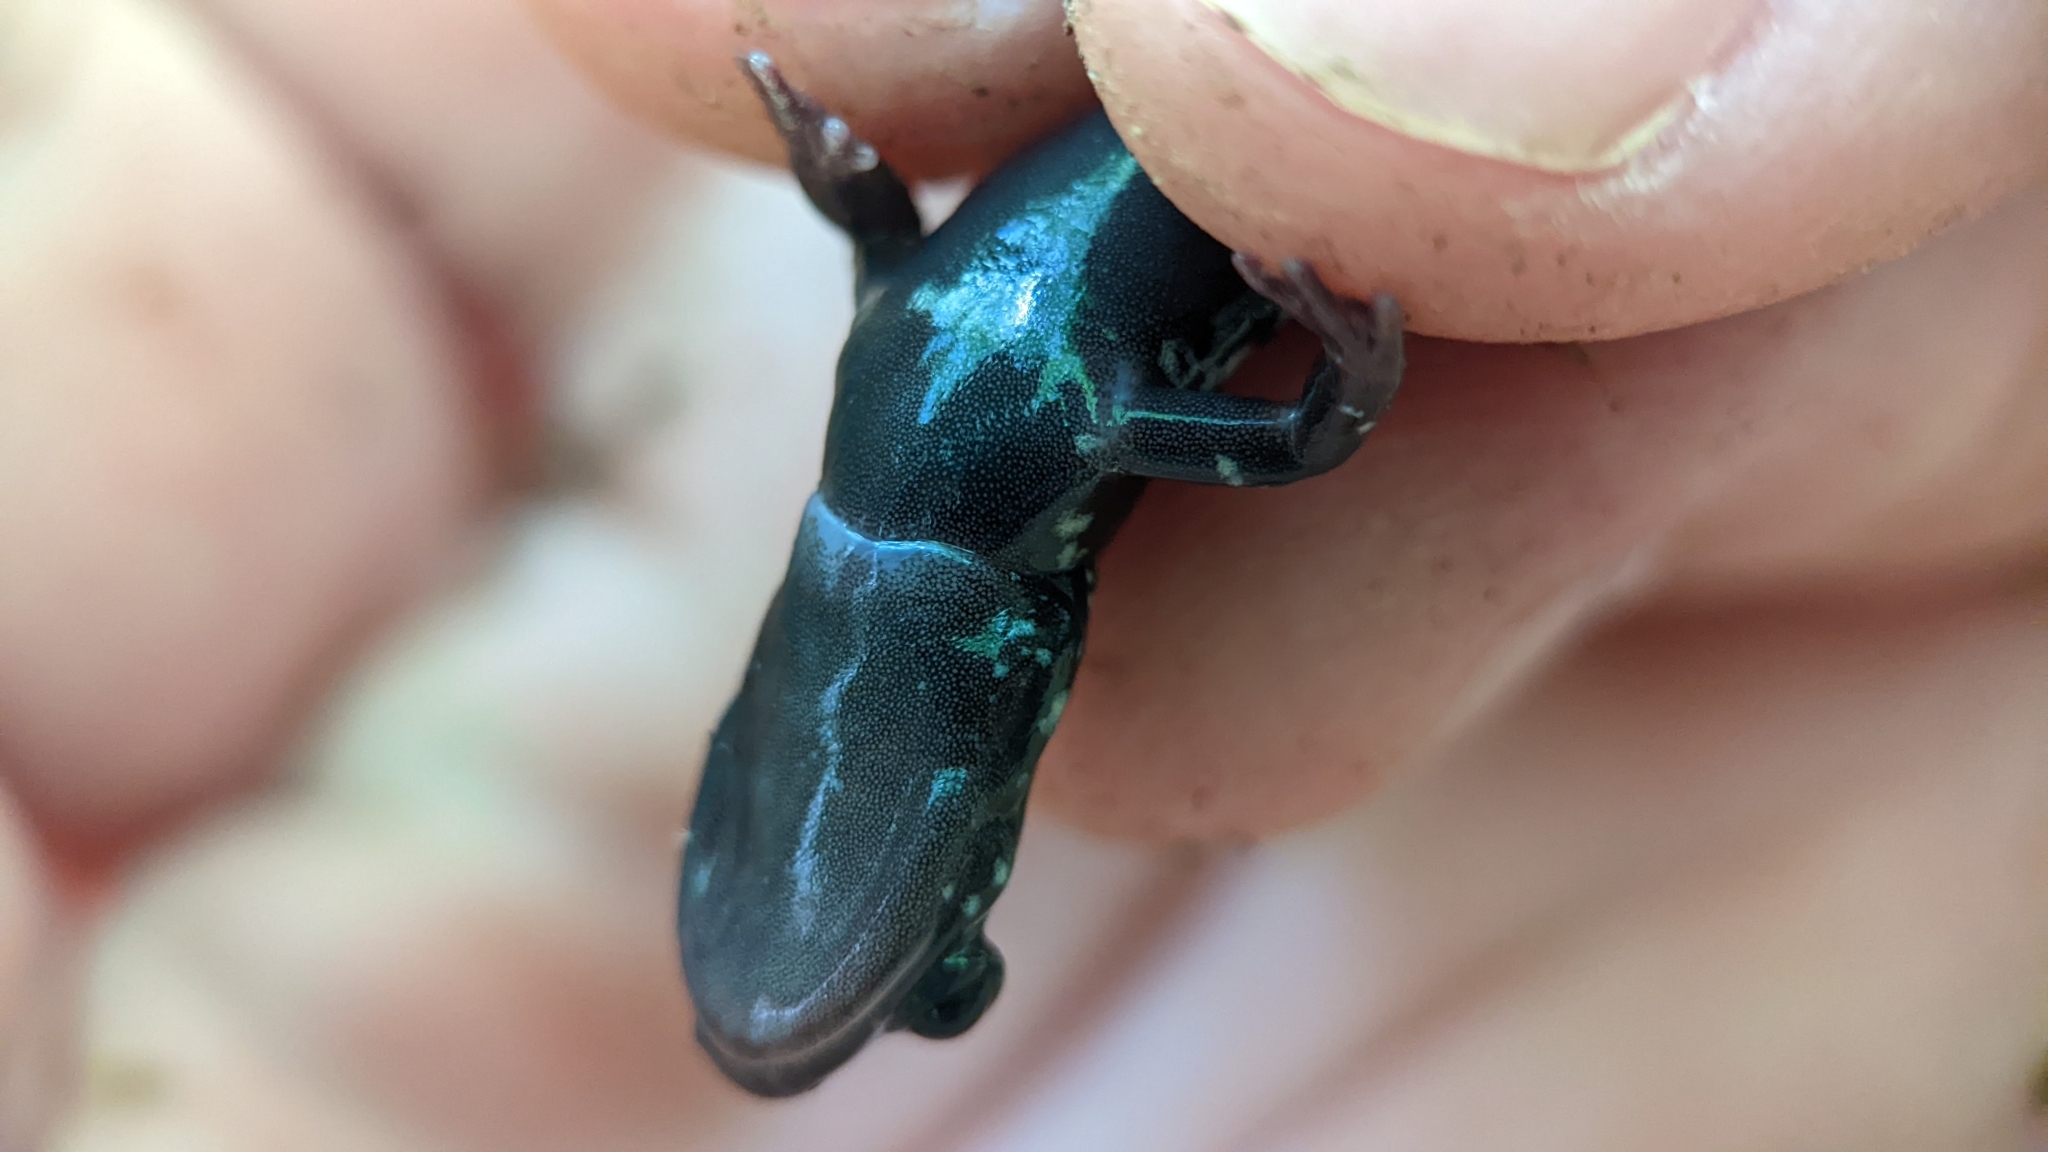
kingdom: Animalia
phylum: Chordata
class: Amphibia
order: Caudata
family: Plethodontidae
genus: Plethodon
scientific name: Plethodon albagula
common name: Western slimy salamander
